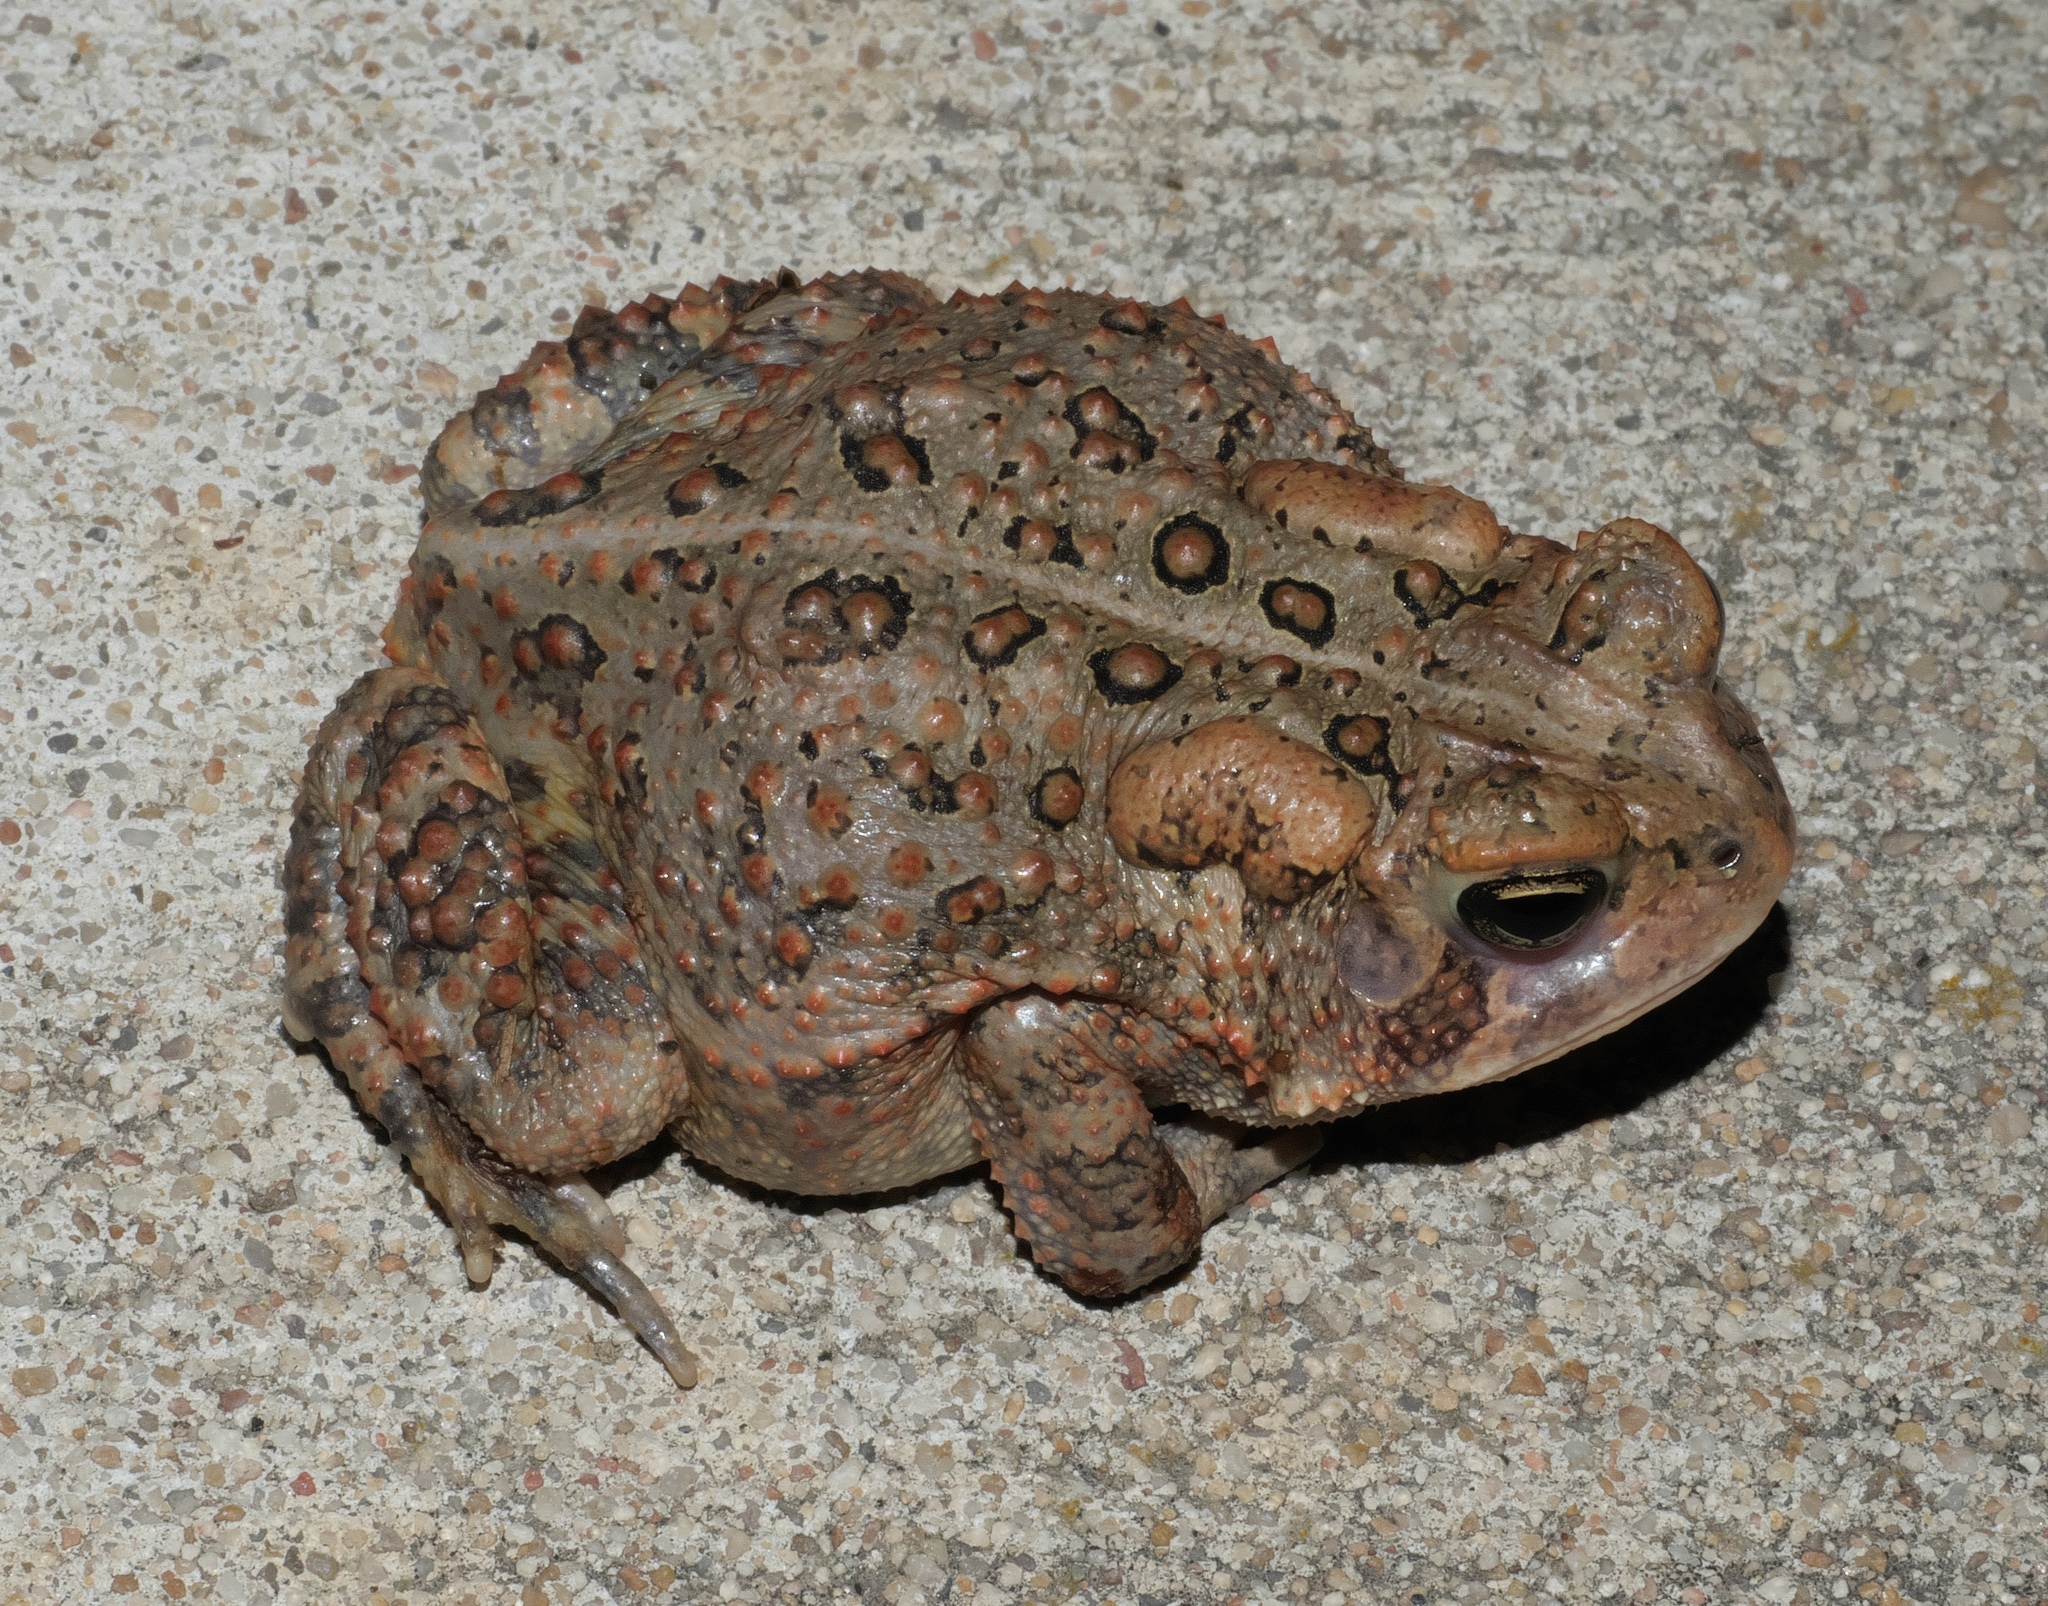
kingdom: Animalia
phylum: Chordata
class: Amphibia
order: Anura
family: Bufonidae
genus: Anaxyrus
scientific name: Anaxyrus americanus
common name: American toad
